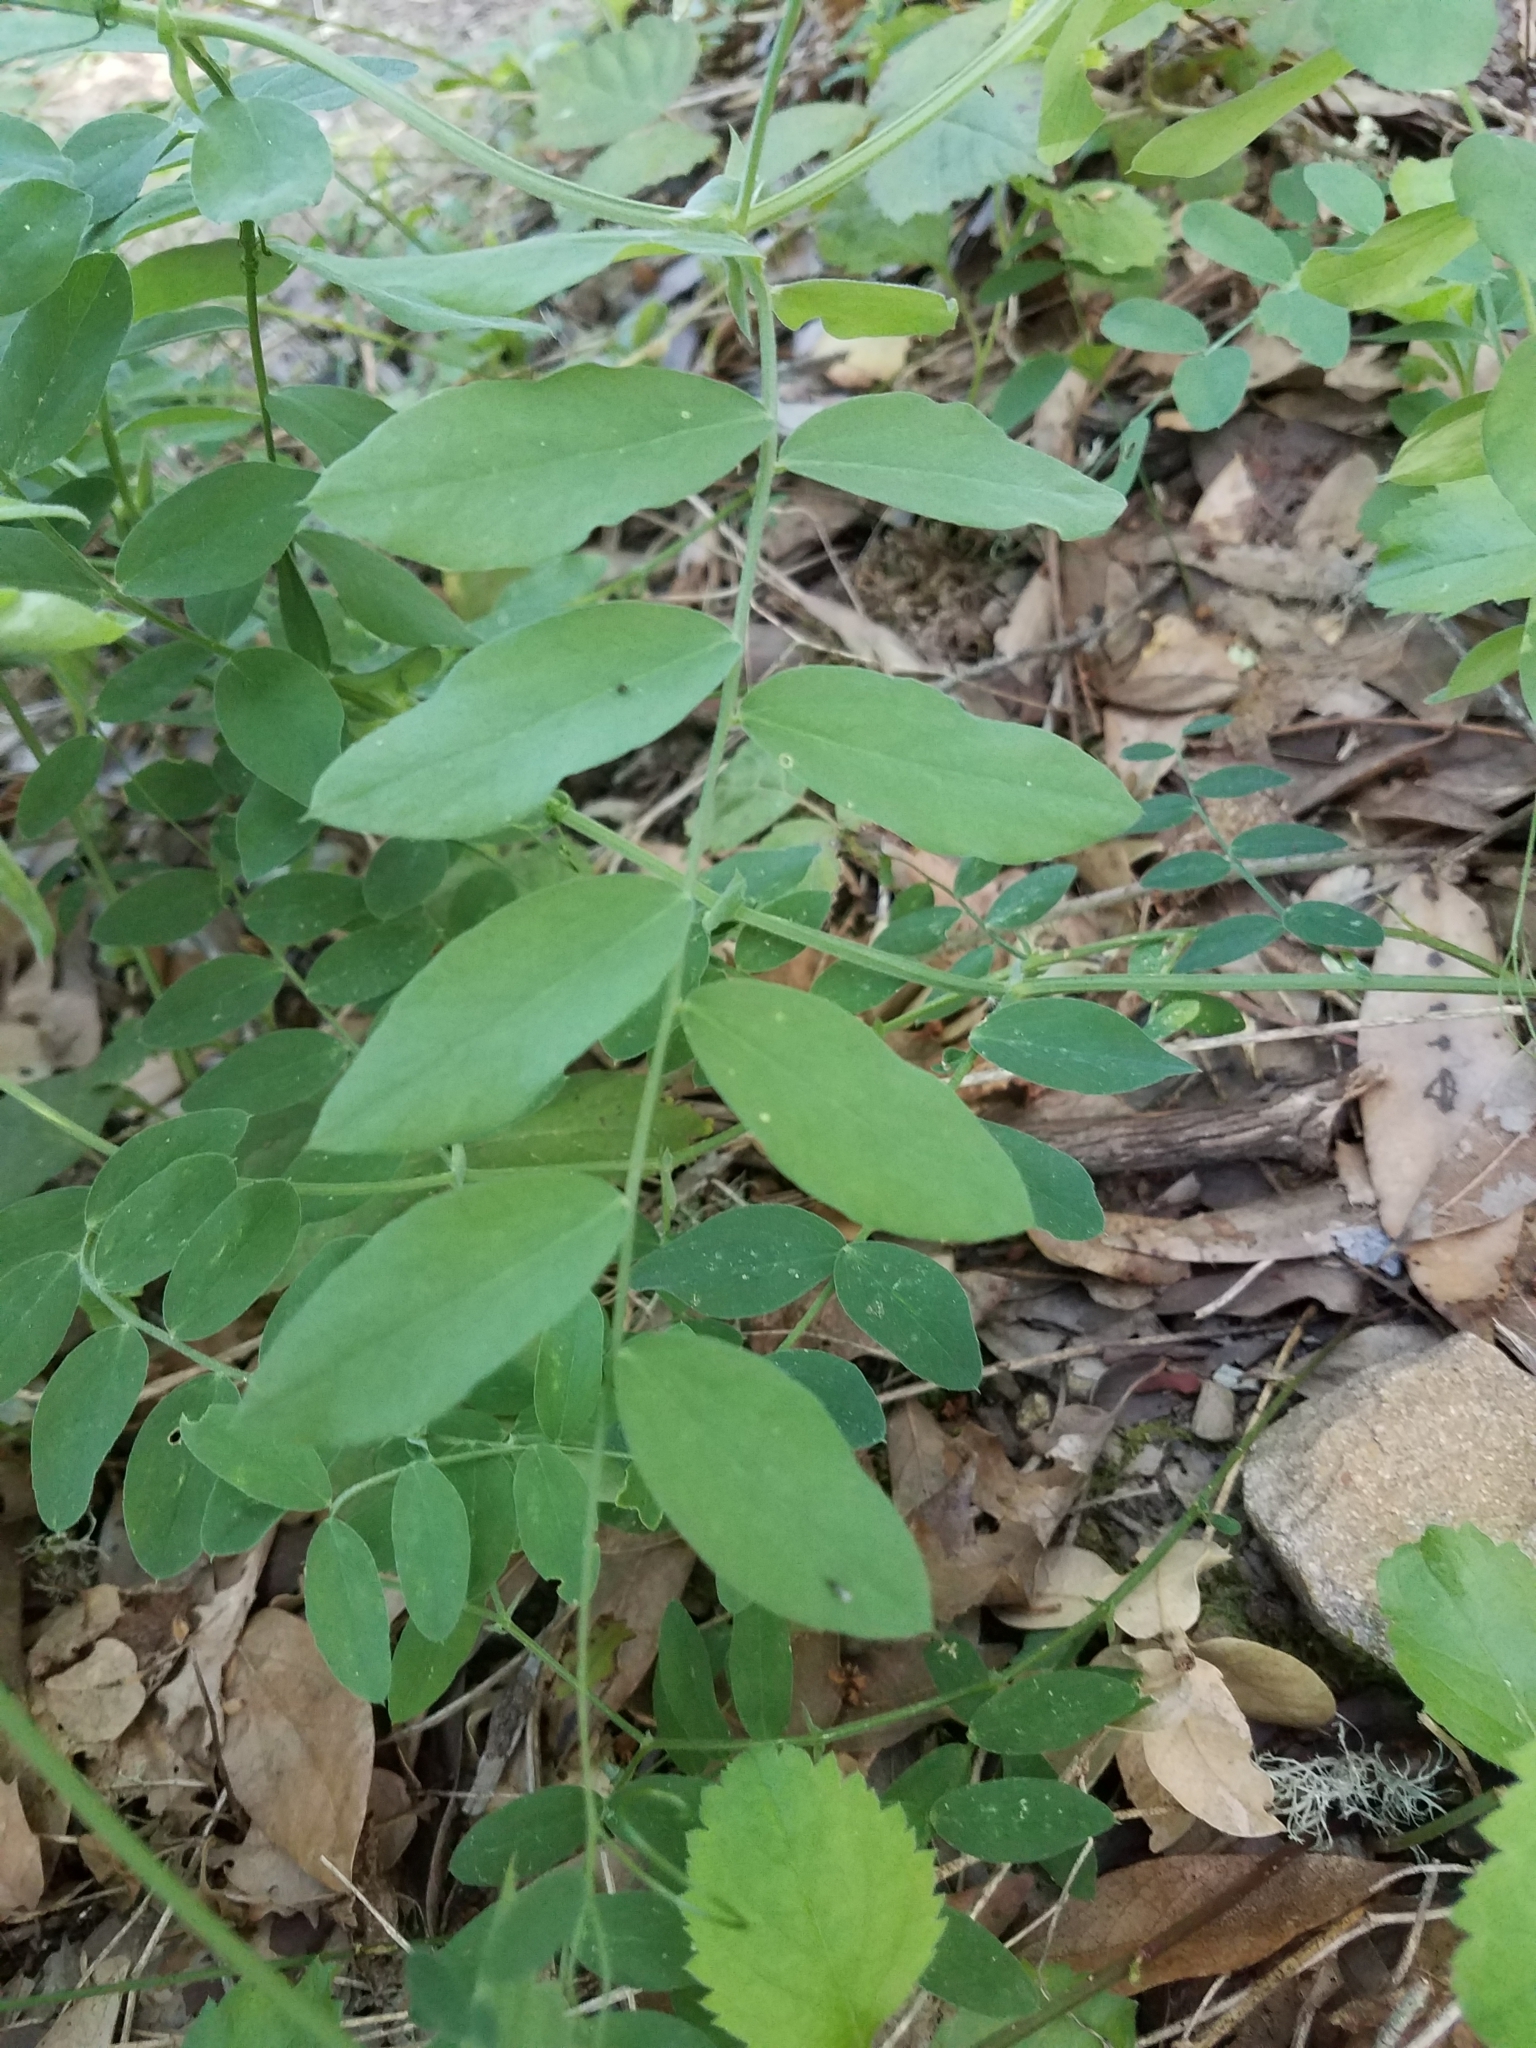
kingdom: Plantae
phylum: Tracheophyta
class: Magnoliopsida
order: Fabales
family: Fabaceae
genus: Lathyrus
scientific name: Lathyrus vestitus
